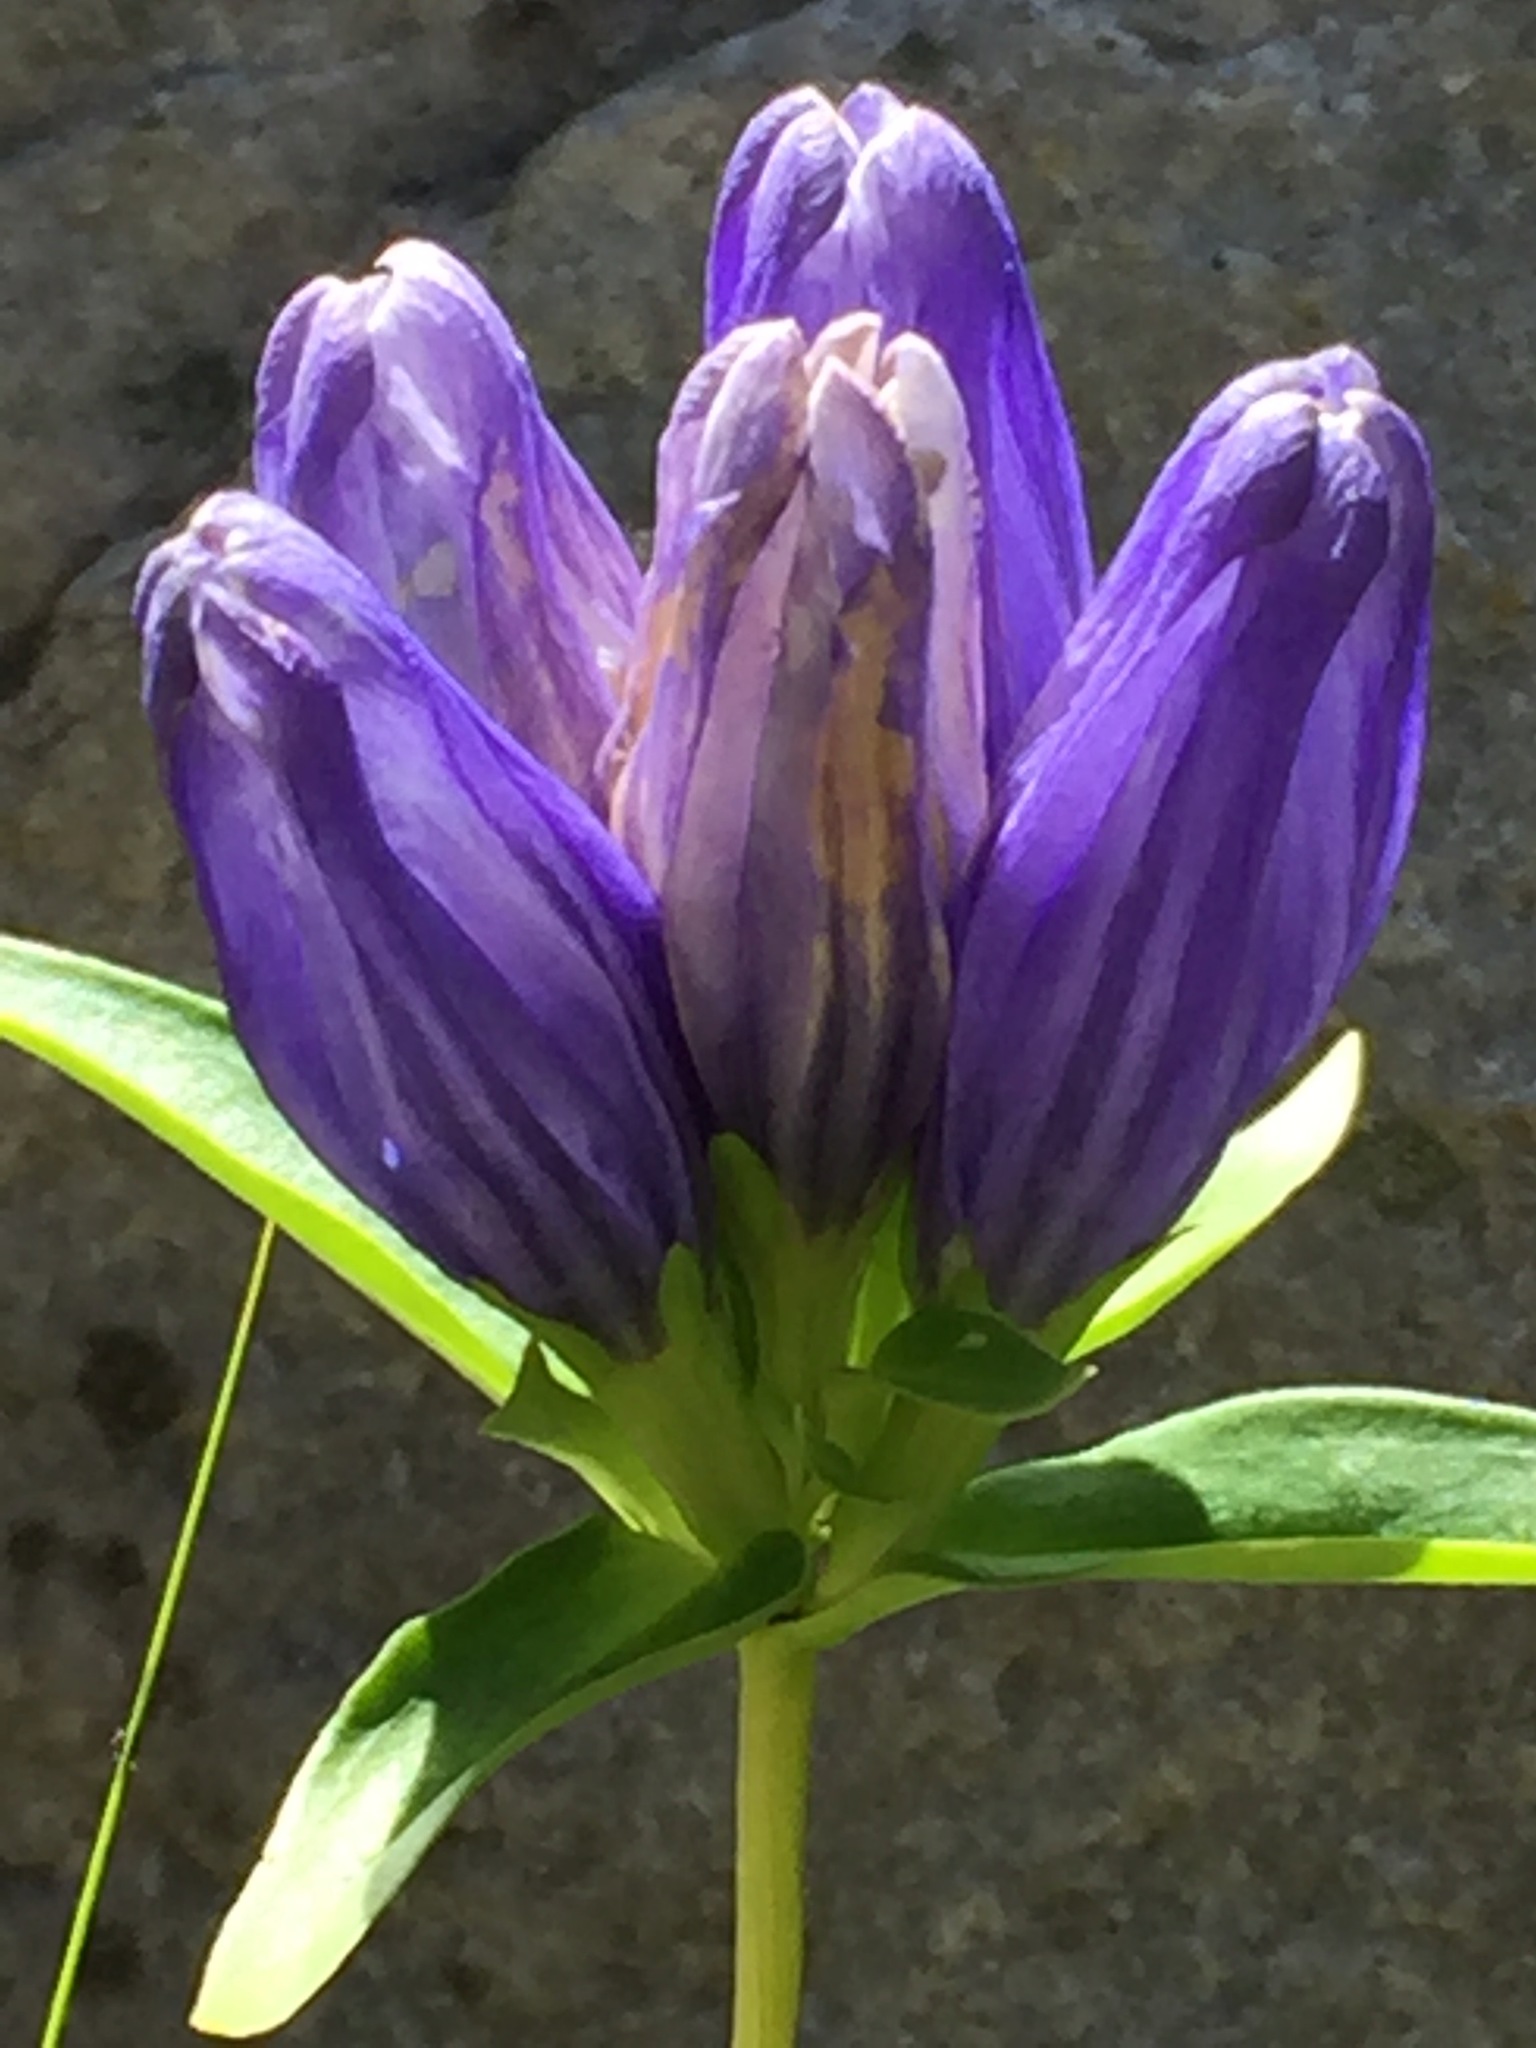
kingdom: Plantae
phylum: Tracheophyta
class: Magnoliopsida
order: Gentianales
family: Gentianaceae
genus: Gentiana
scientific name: Gentiana linearis
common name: Bastard gentian
